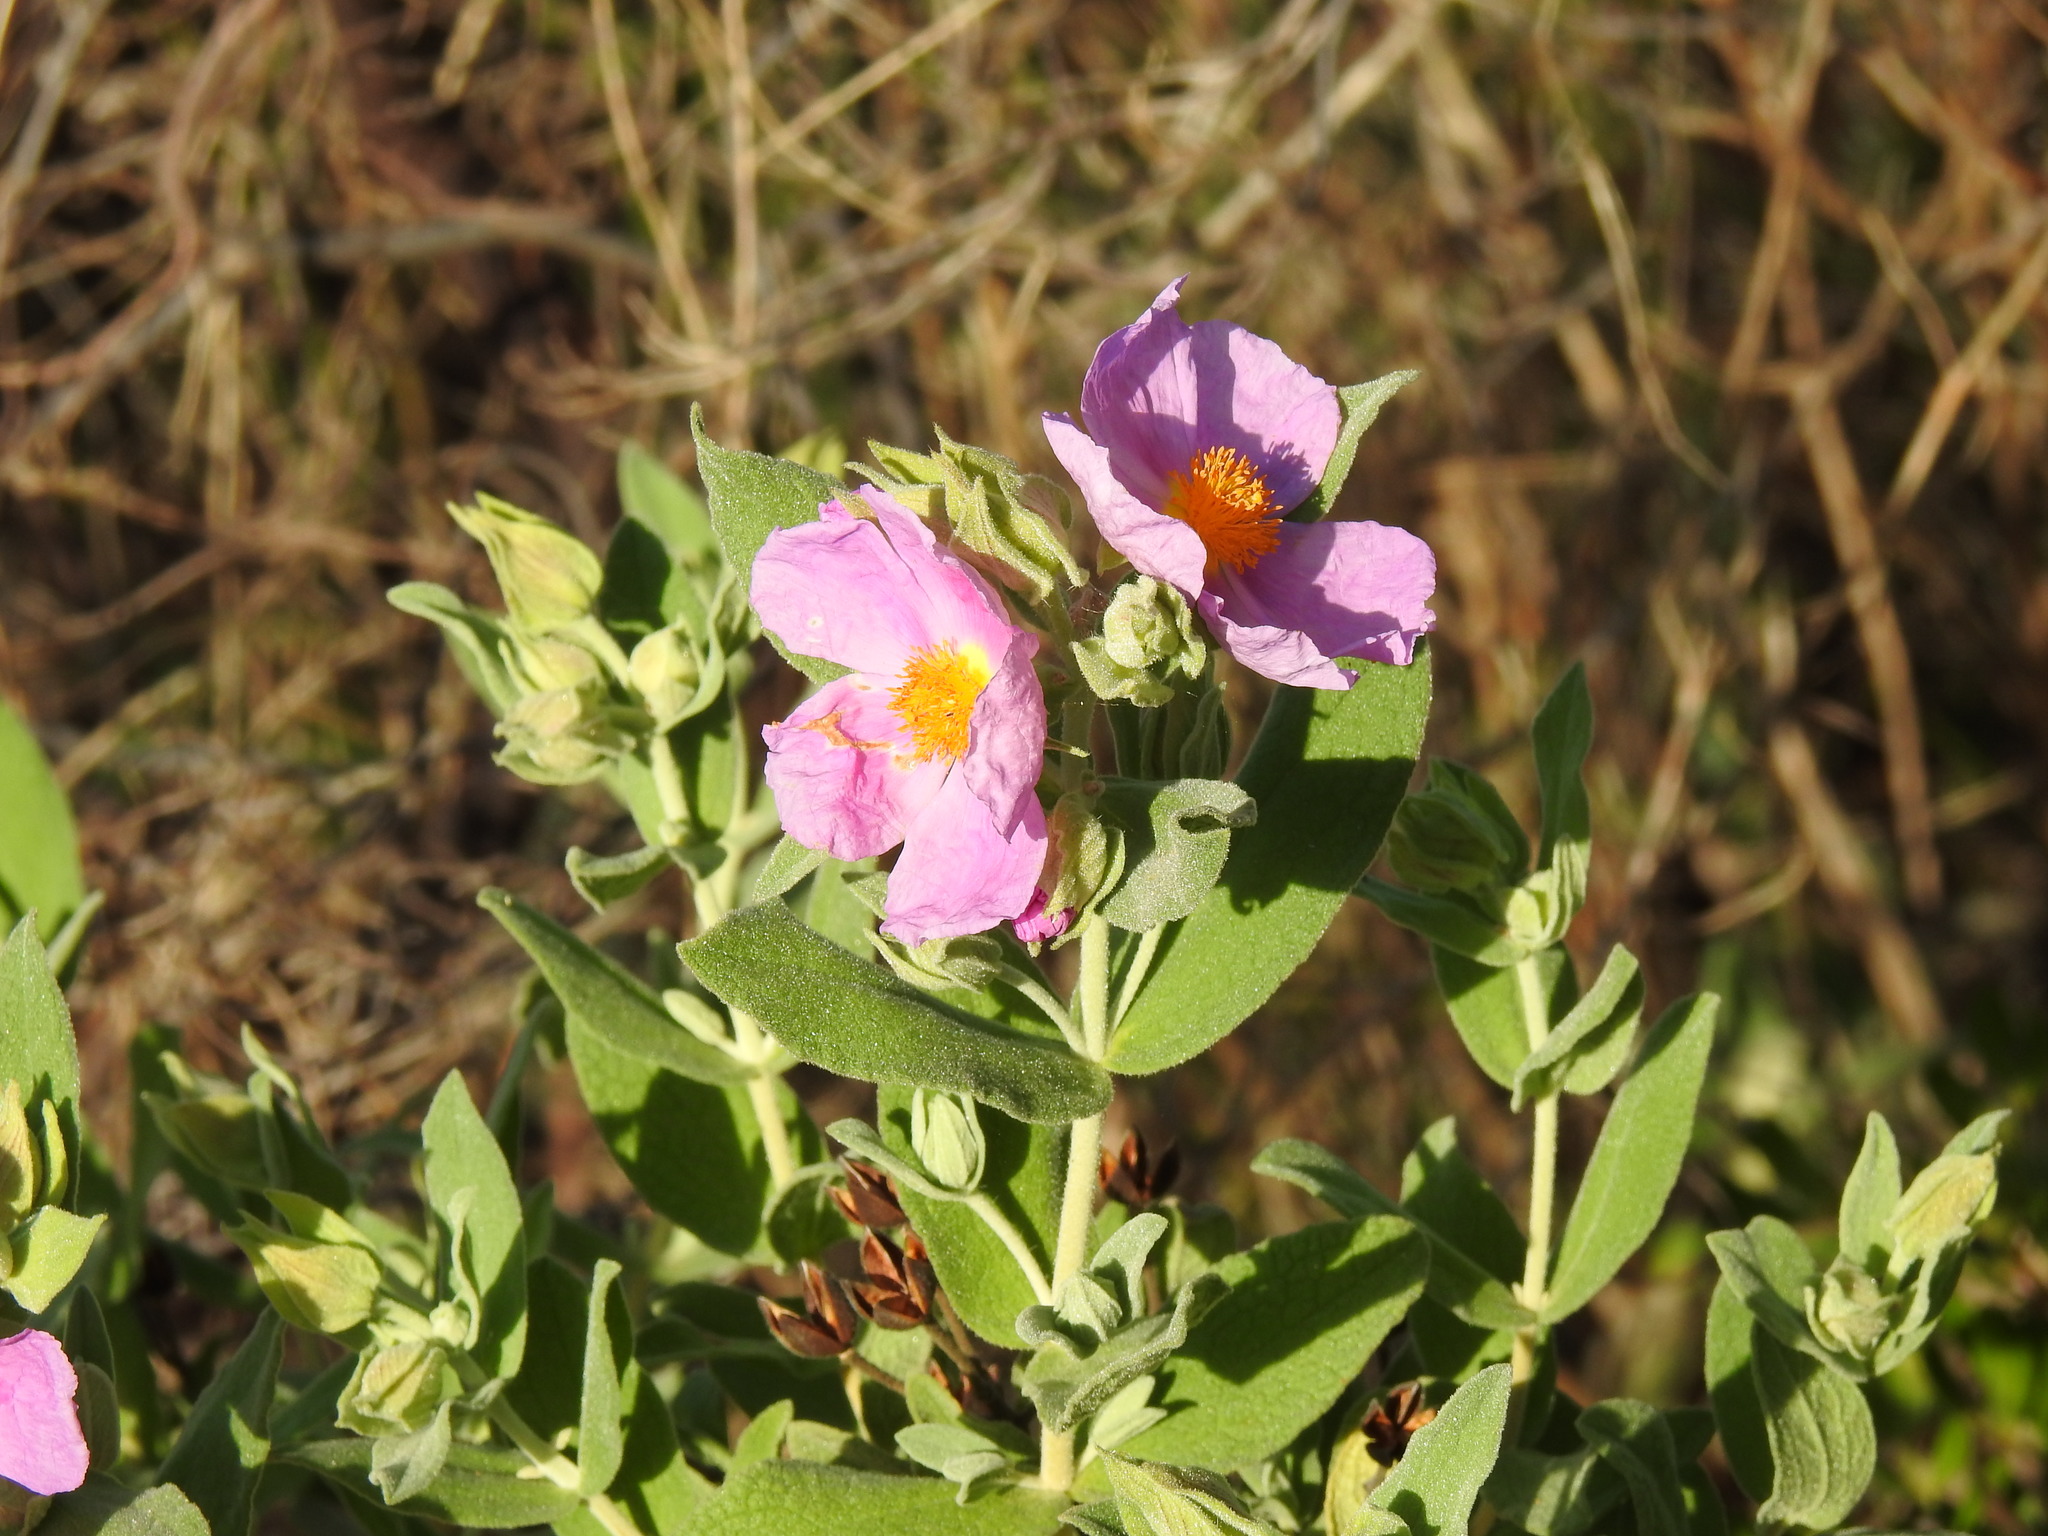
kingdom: Plantae
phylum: Tracheophyta
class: Magnoliopsida
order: Malvales
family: Cistaceae
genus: Cistus
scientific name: Cistus albidus
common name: White-leaf rock-rose
